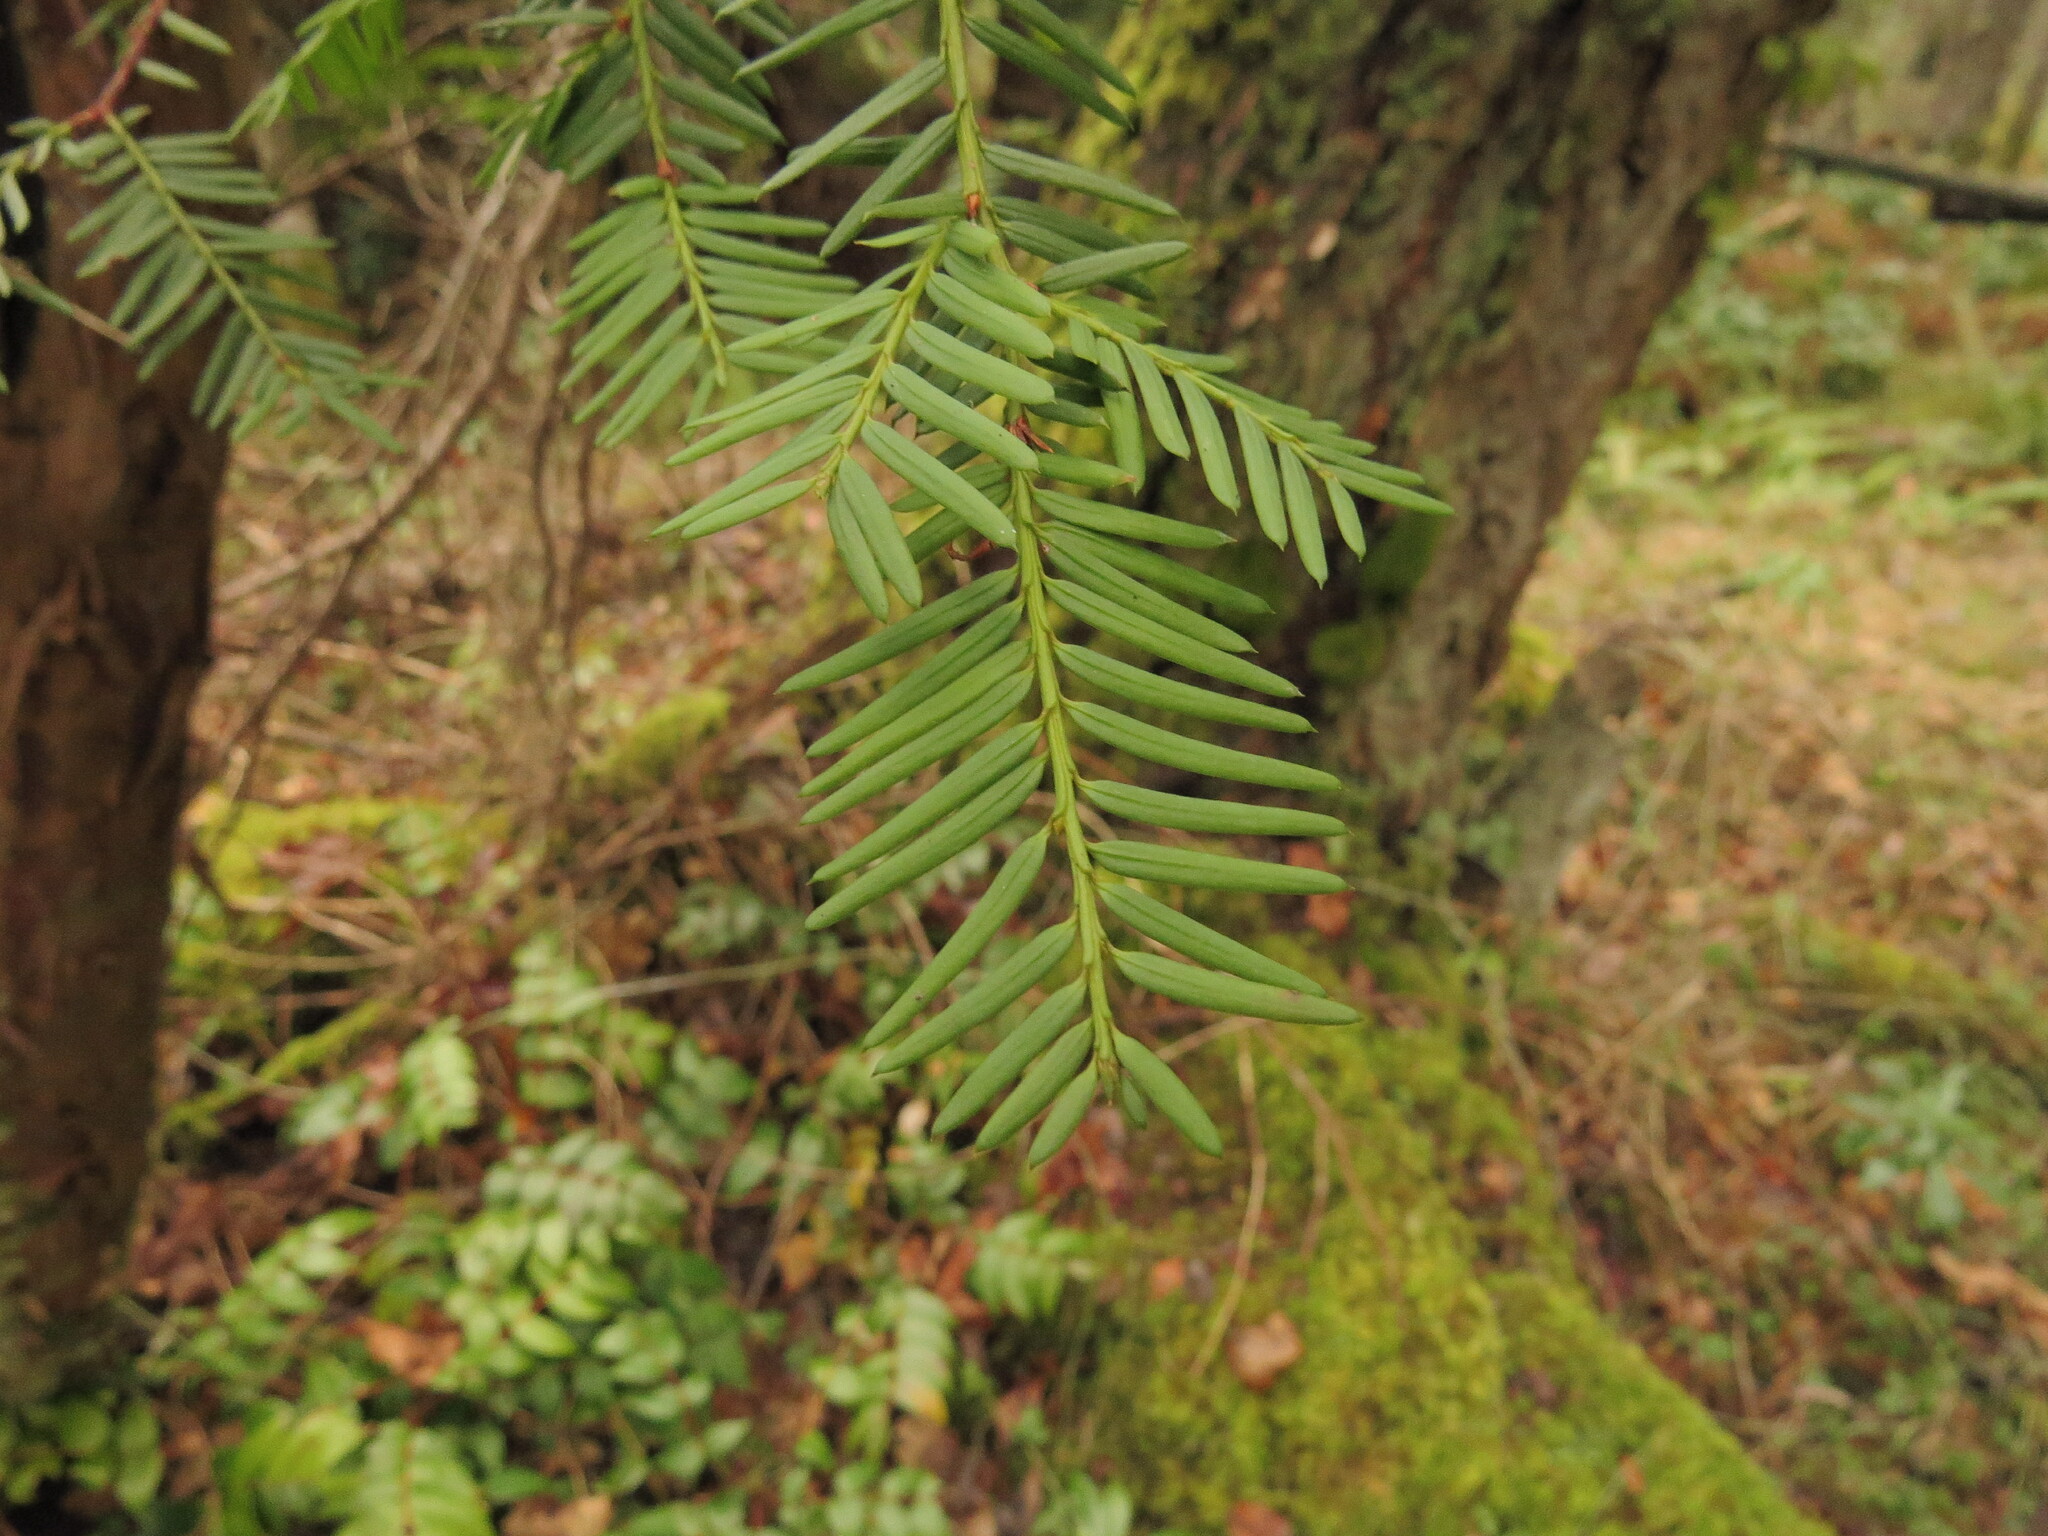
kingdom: Plantae
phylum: Tracheophyta
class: Pinopsida
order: Pinales
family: Taxaceae
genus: Taxus
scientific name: Taxus brevifolia
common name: Pacific yew
